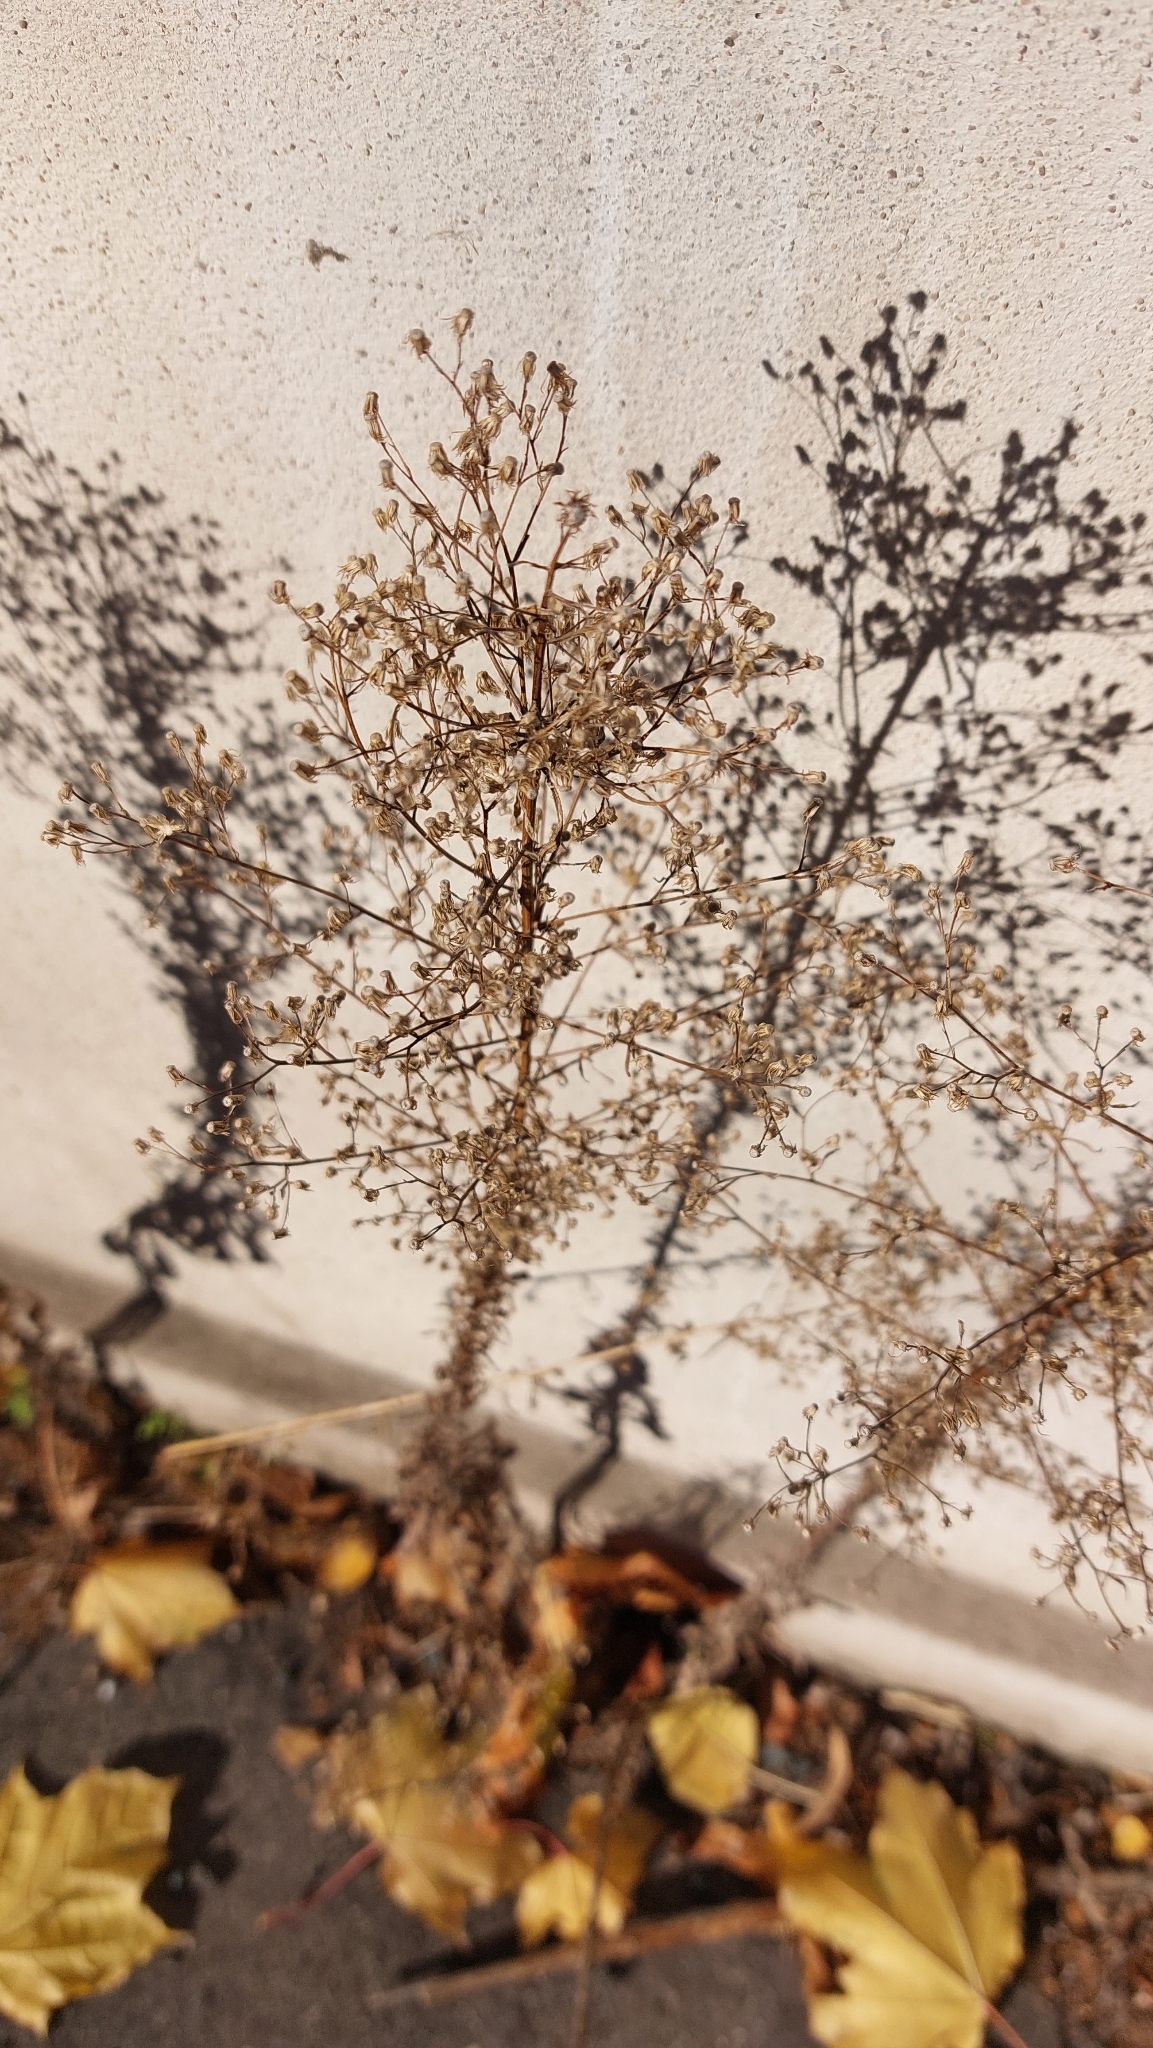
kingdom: Plantae
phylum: Tracheophyta
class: Magnoliopsida
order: Asterales
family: Asteraceae
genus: Erigeron
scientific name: Erigeron canadensis
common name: Canadian fleabane
